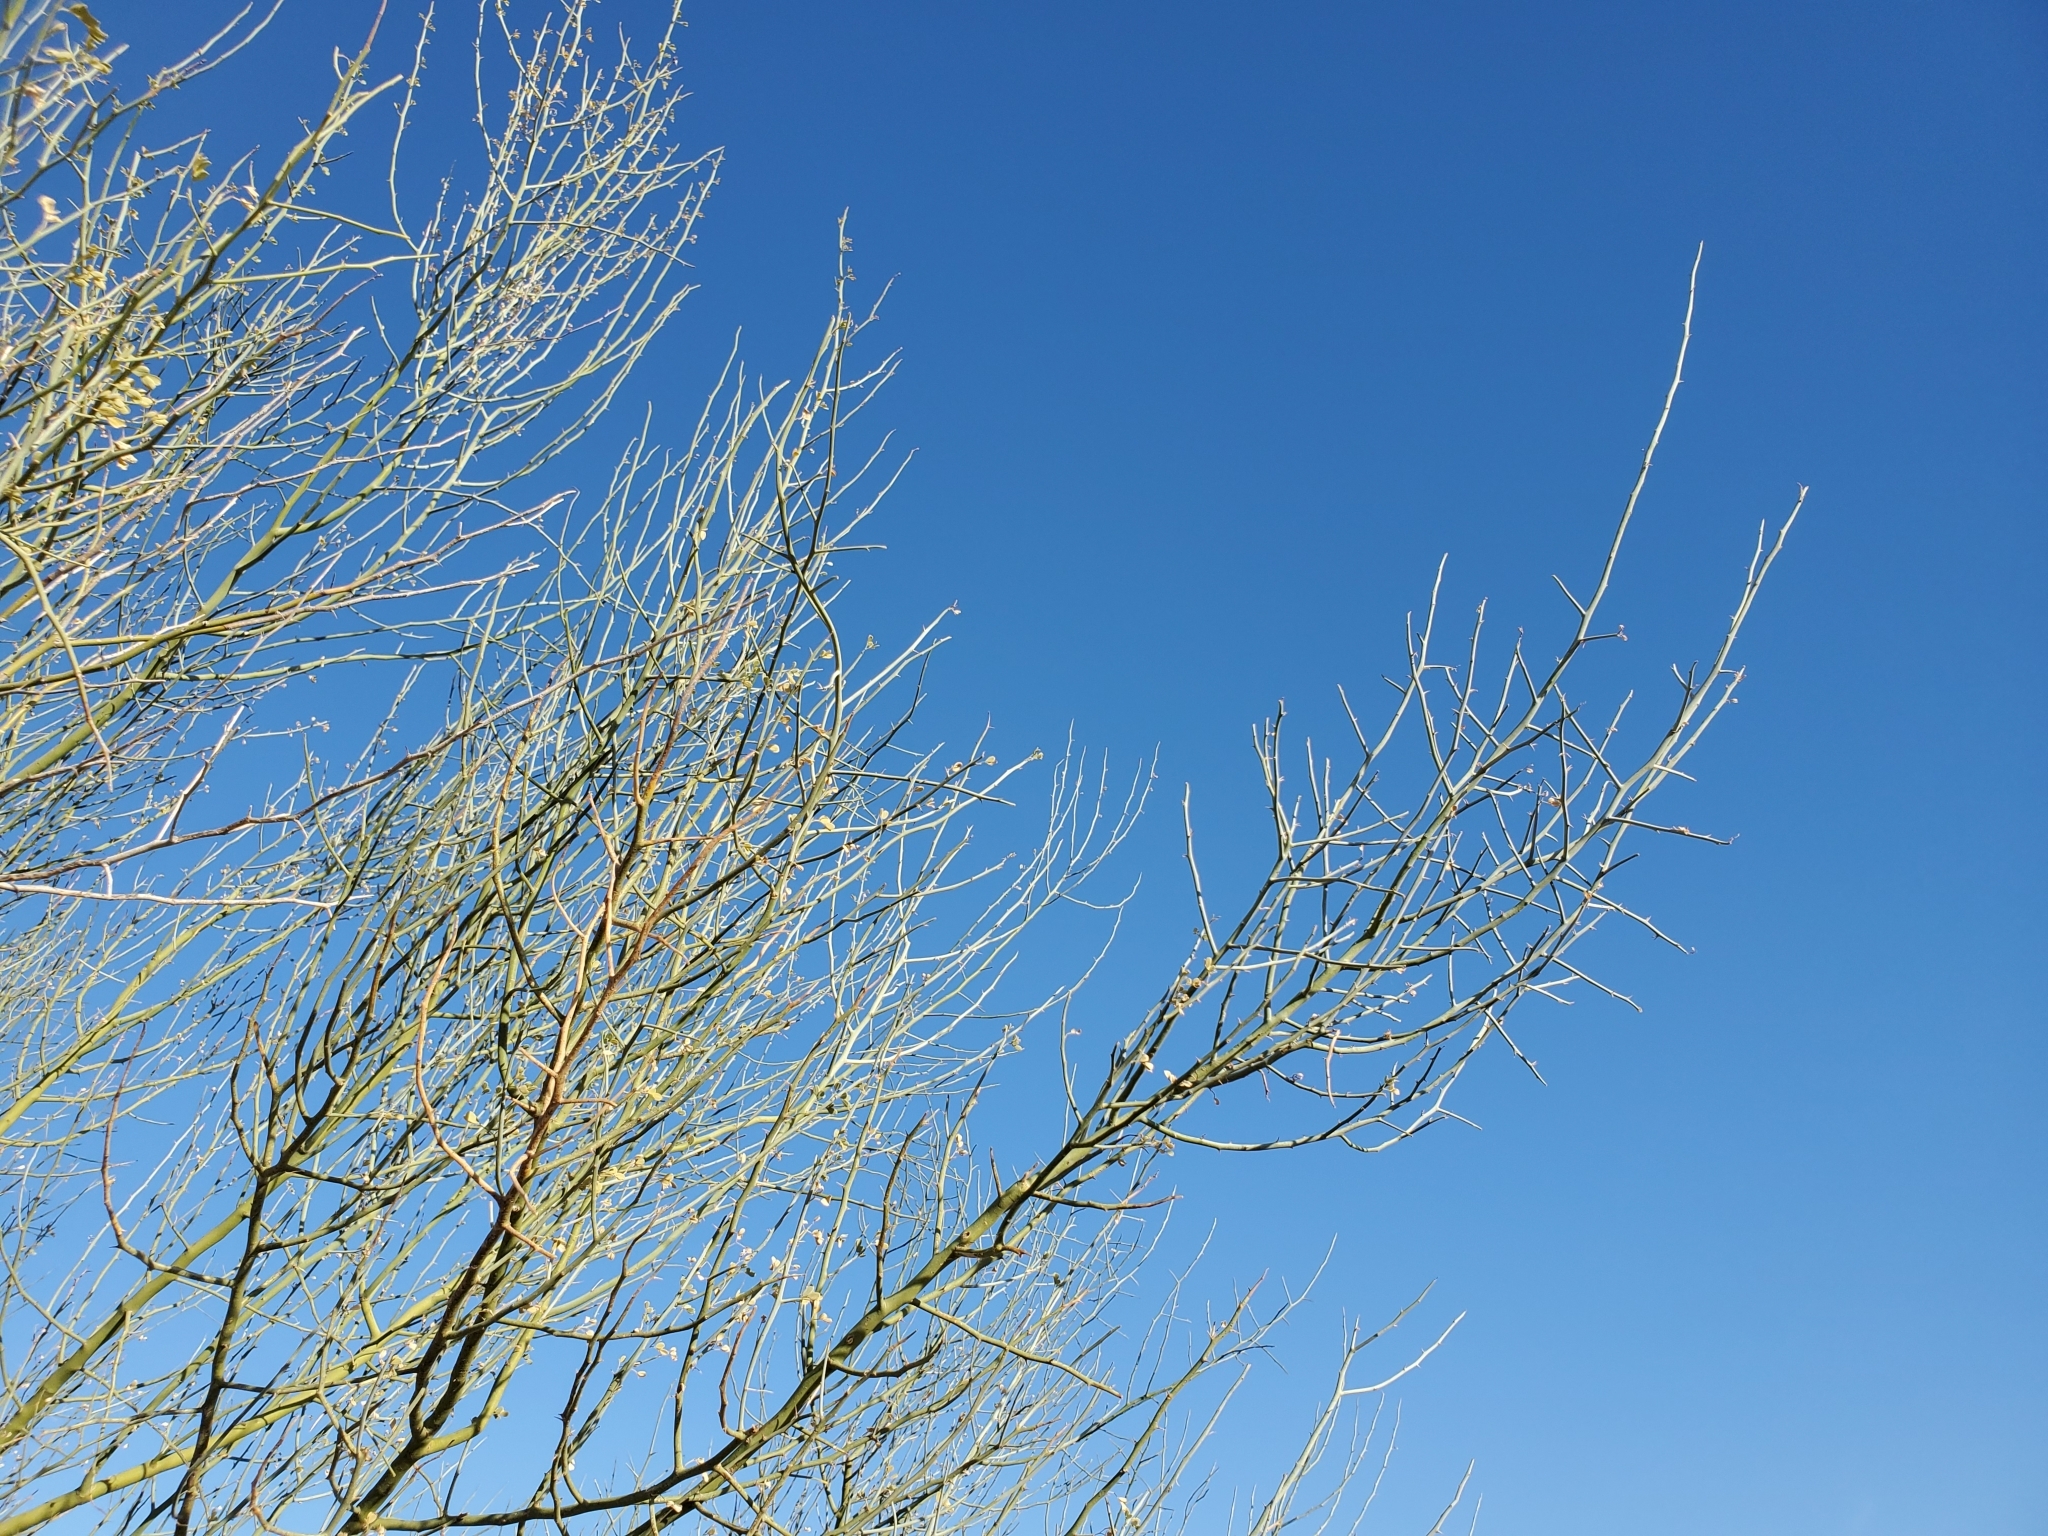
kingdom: Plantae
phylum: Tracheophyta
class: Magnoliopsida
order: Fabales
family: Fabaceae
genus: Parkinsonia
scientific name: Parkinsonia florida
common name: Blue paloverde
